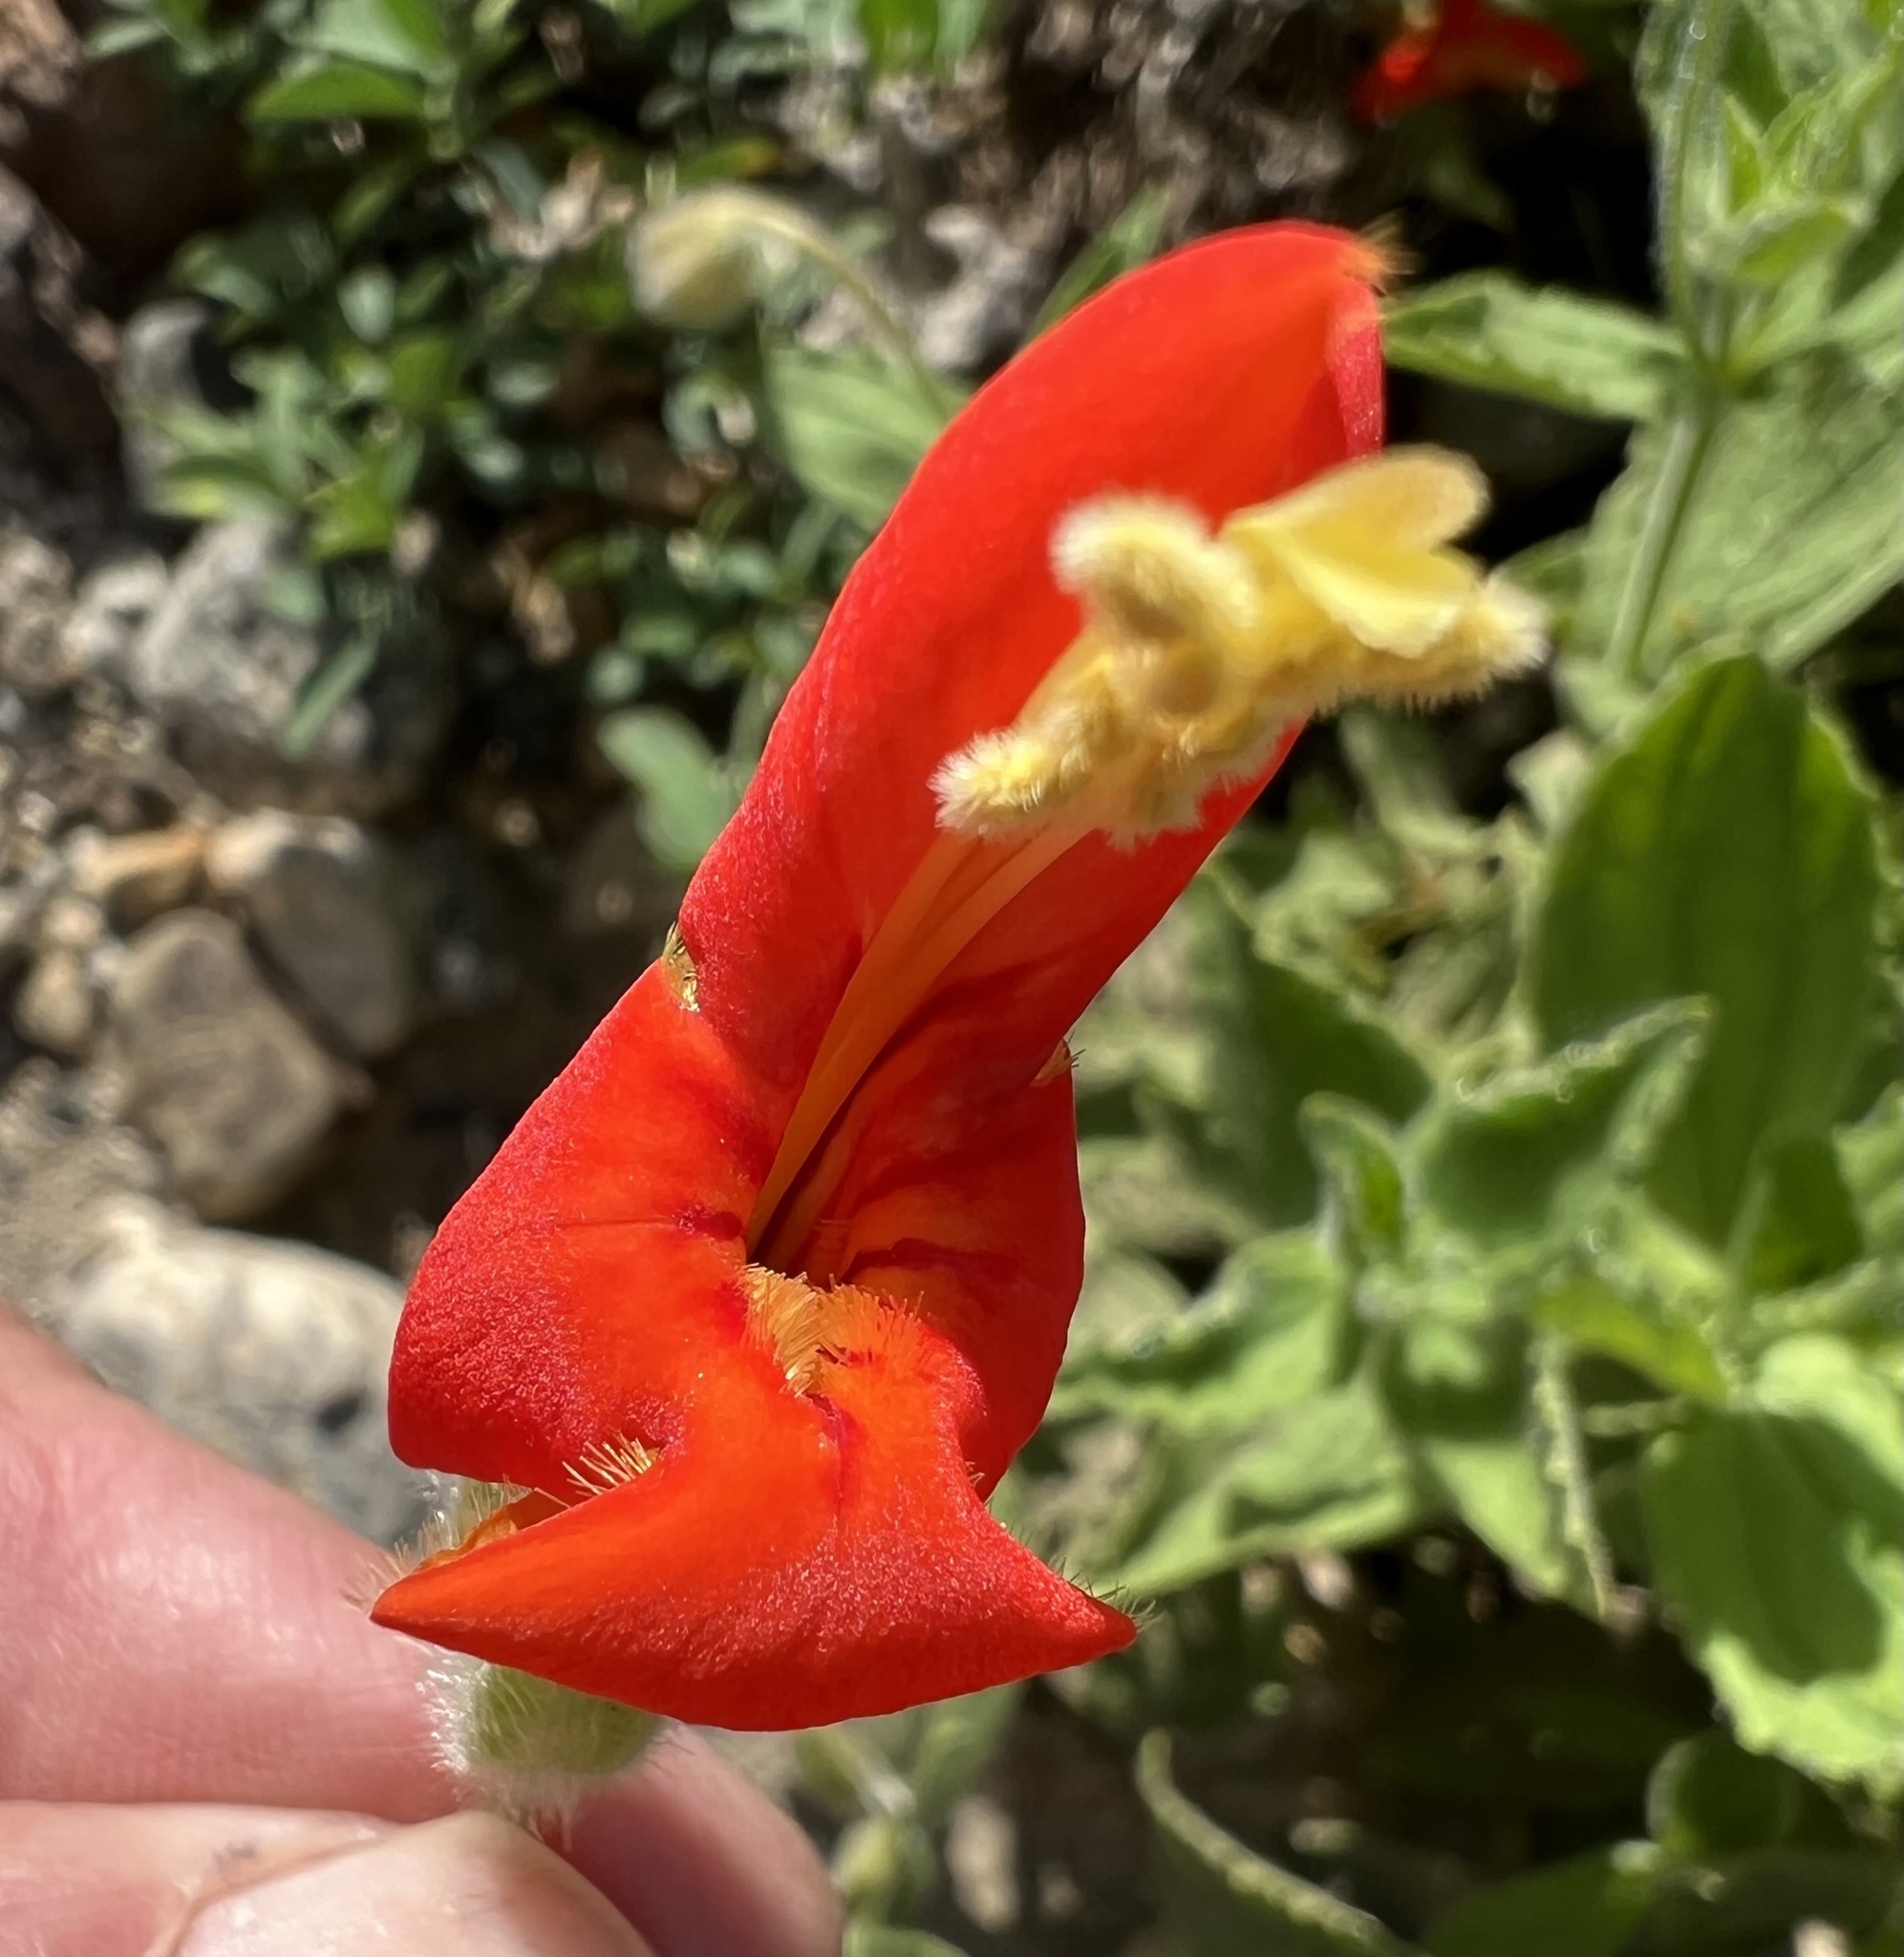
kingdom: Plantae
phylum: Tracheophyta
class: Magnoliopsida
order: Lamiales
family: Phrymaceae
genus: Erythranthe
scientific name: Erythranthe cardinalis
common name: Scarlet monkey-flower
